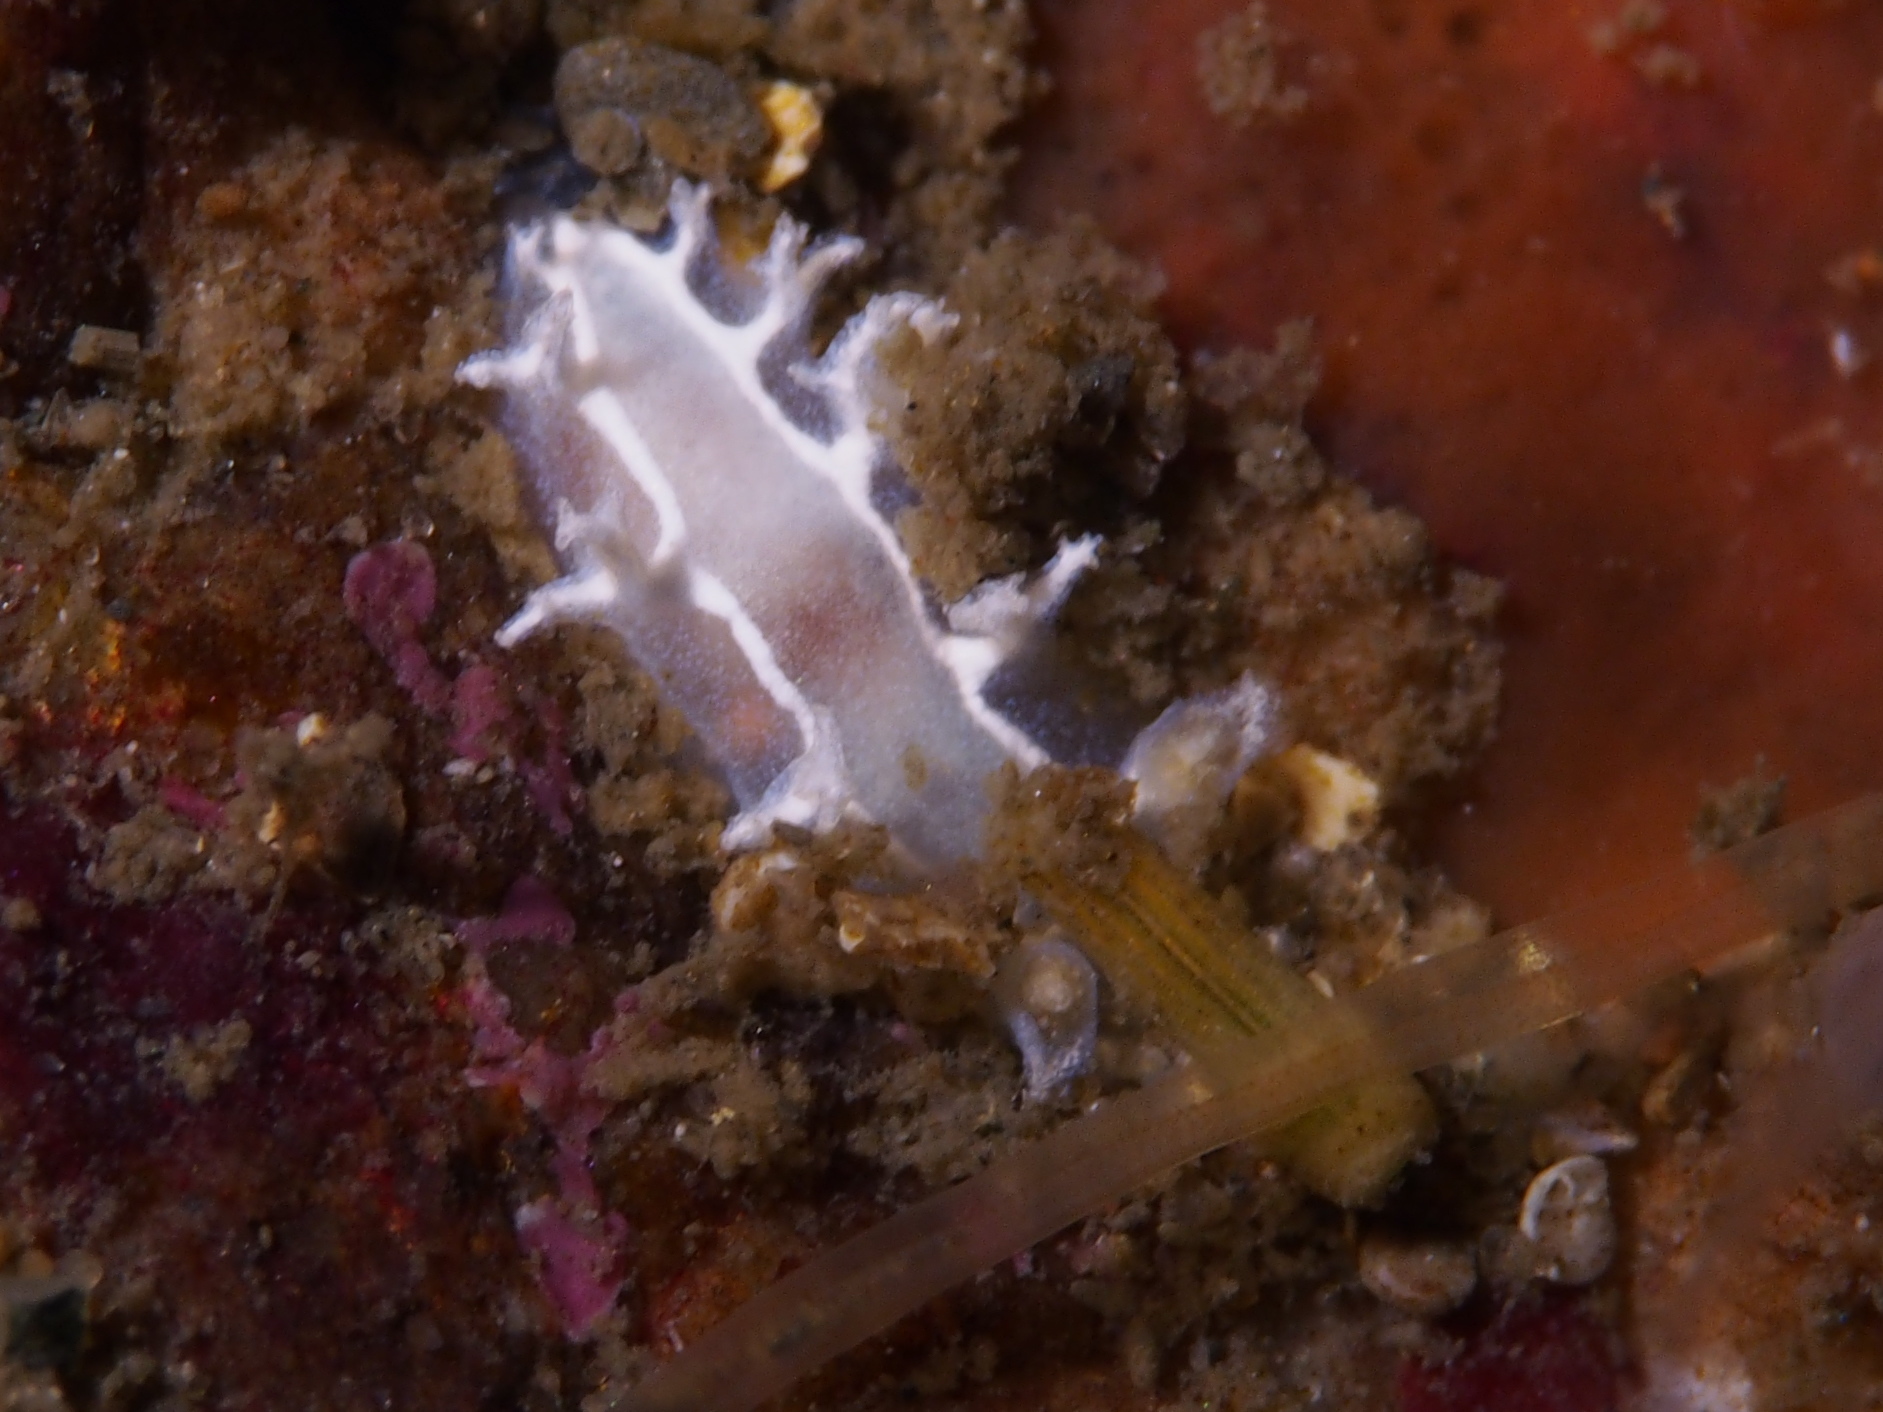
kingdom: Animalia
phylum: Mollusca
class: Gastropoda
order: Nudibranchia
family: Tritoniidae
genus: Duvaucelia
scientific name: Duvaucelia lineata
